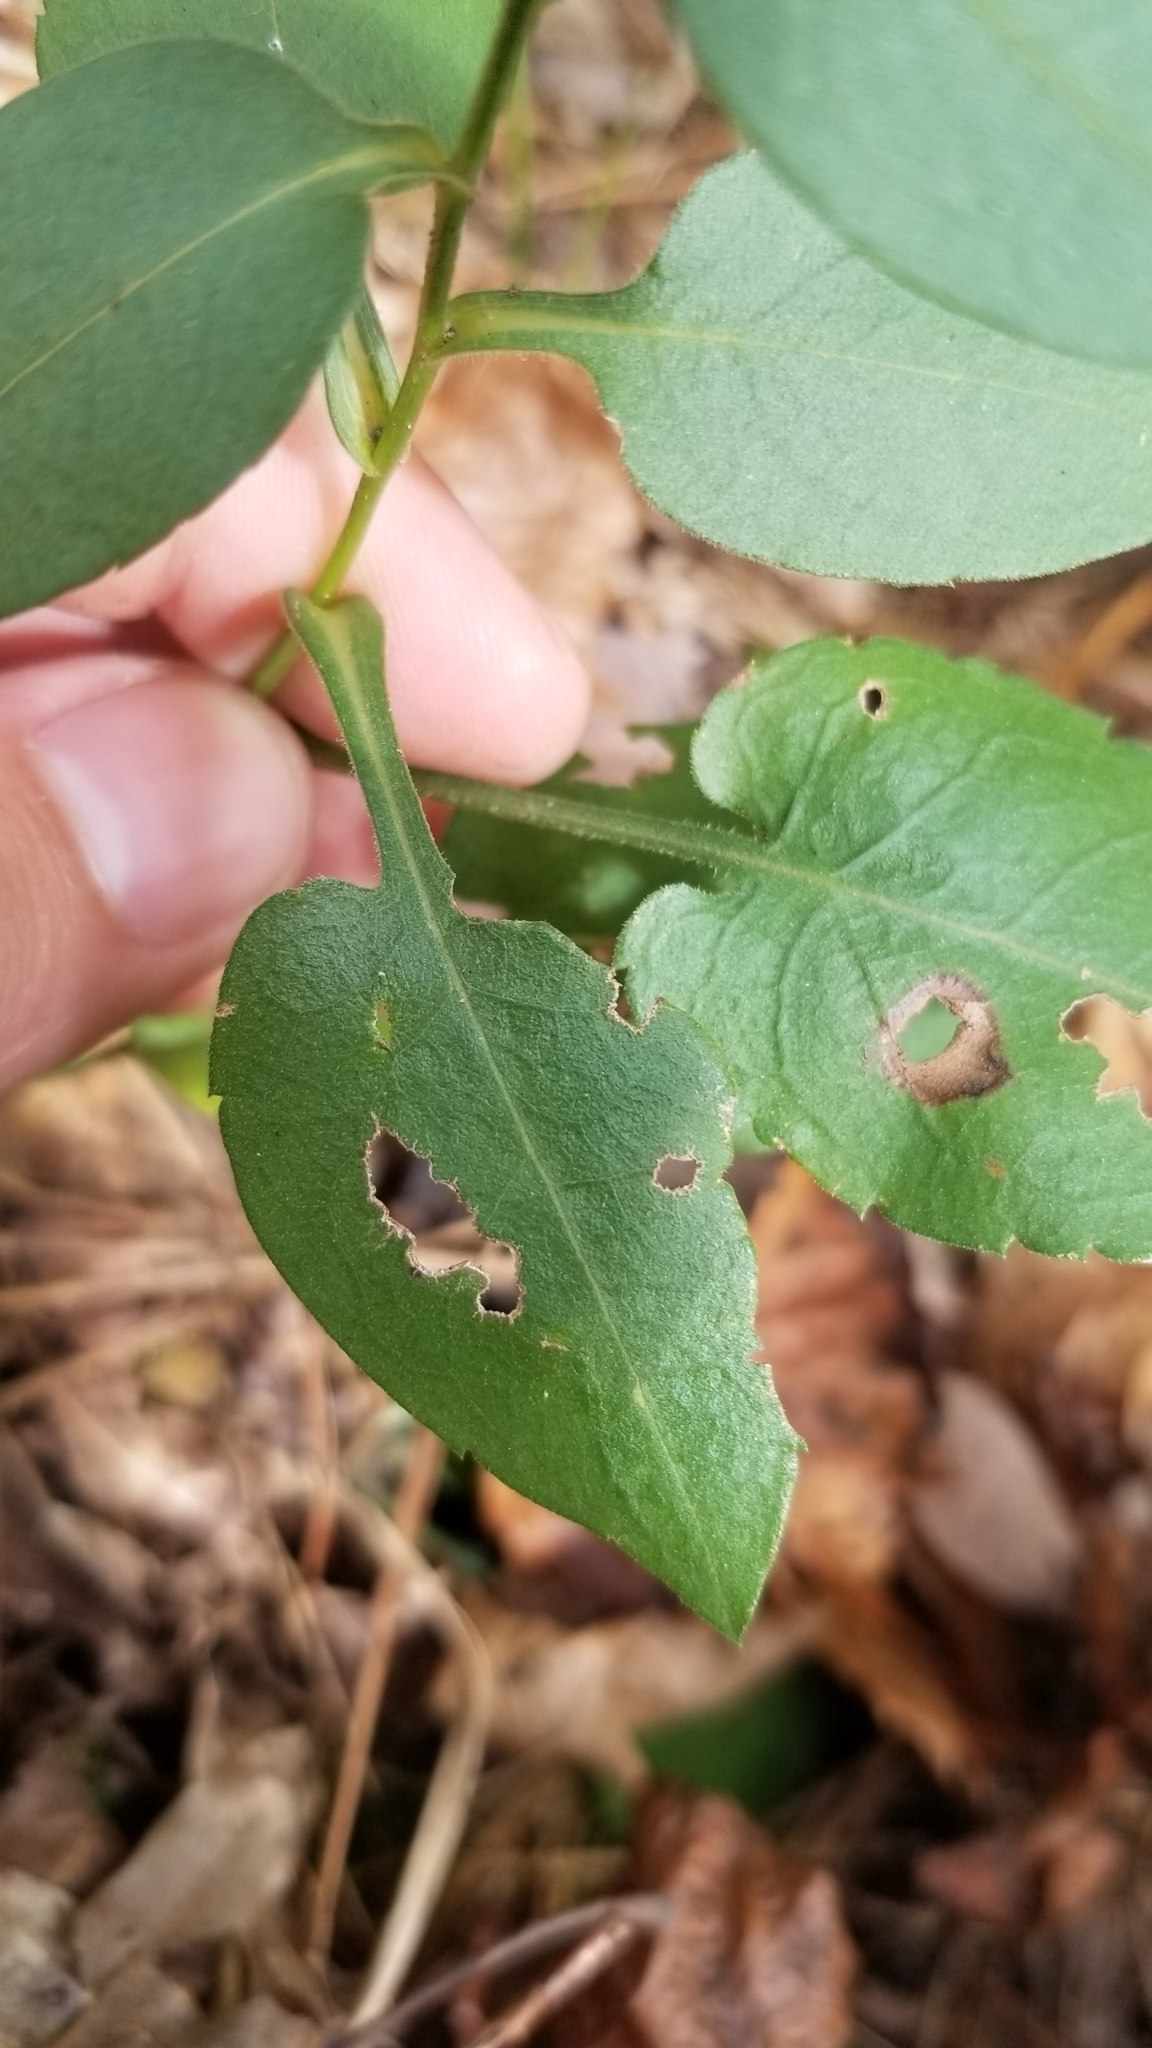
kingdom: Plantae
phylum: Tracheophyta
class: Magnoliopsida
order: Asterales
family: Asteraceae
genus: Symphyotrichum
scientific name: Symphyotrichum undulatum
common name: Clasping heart-leaf aster
